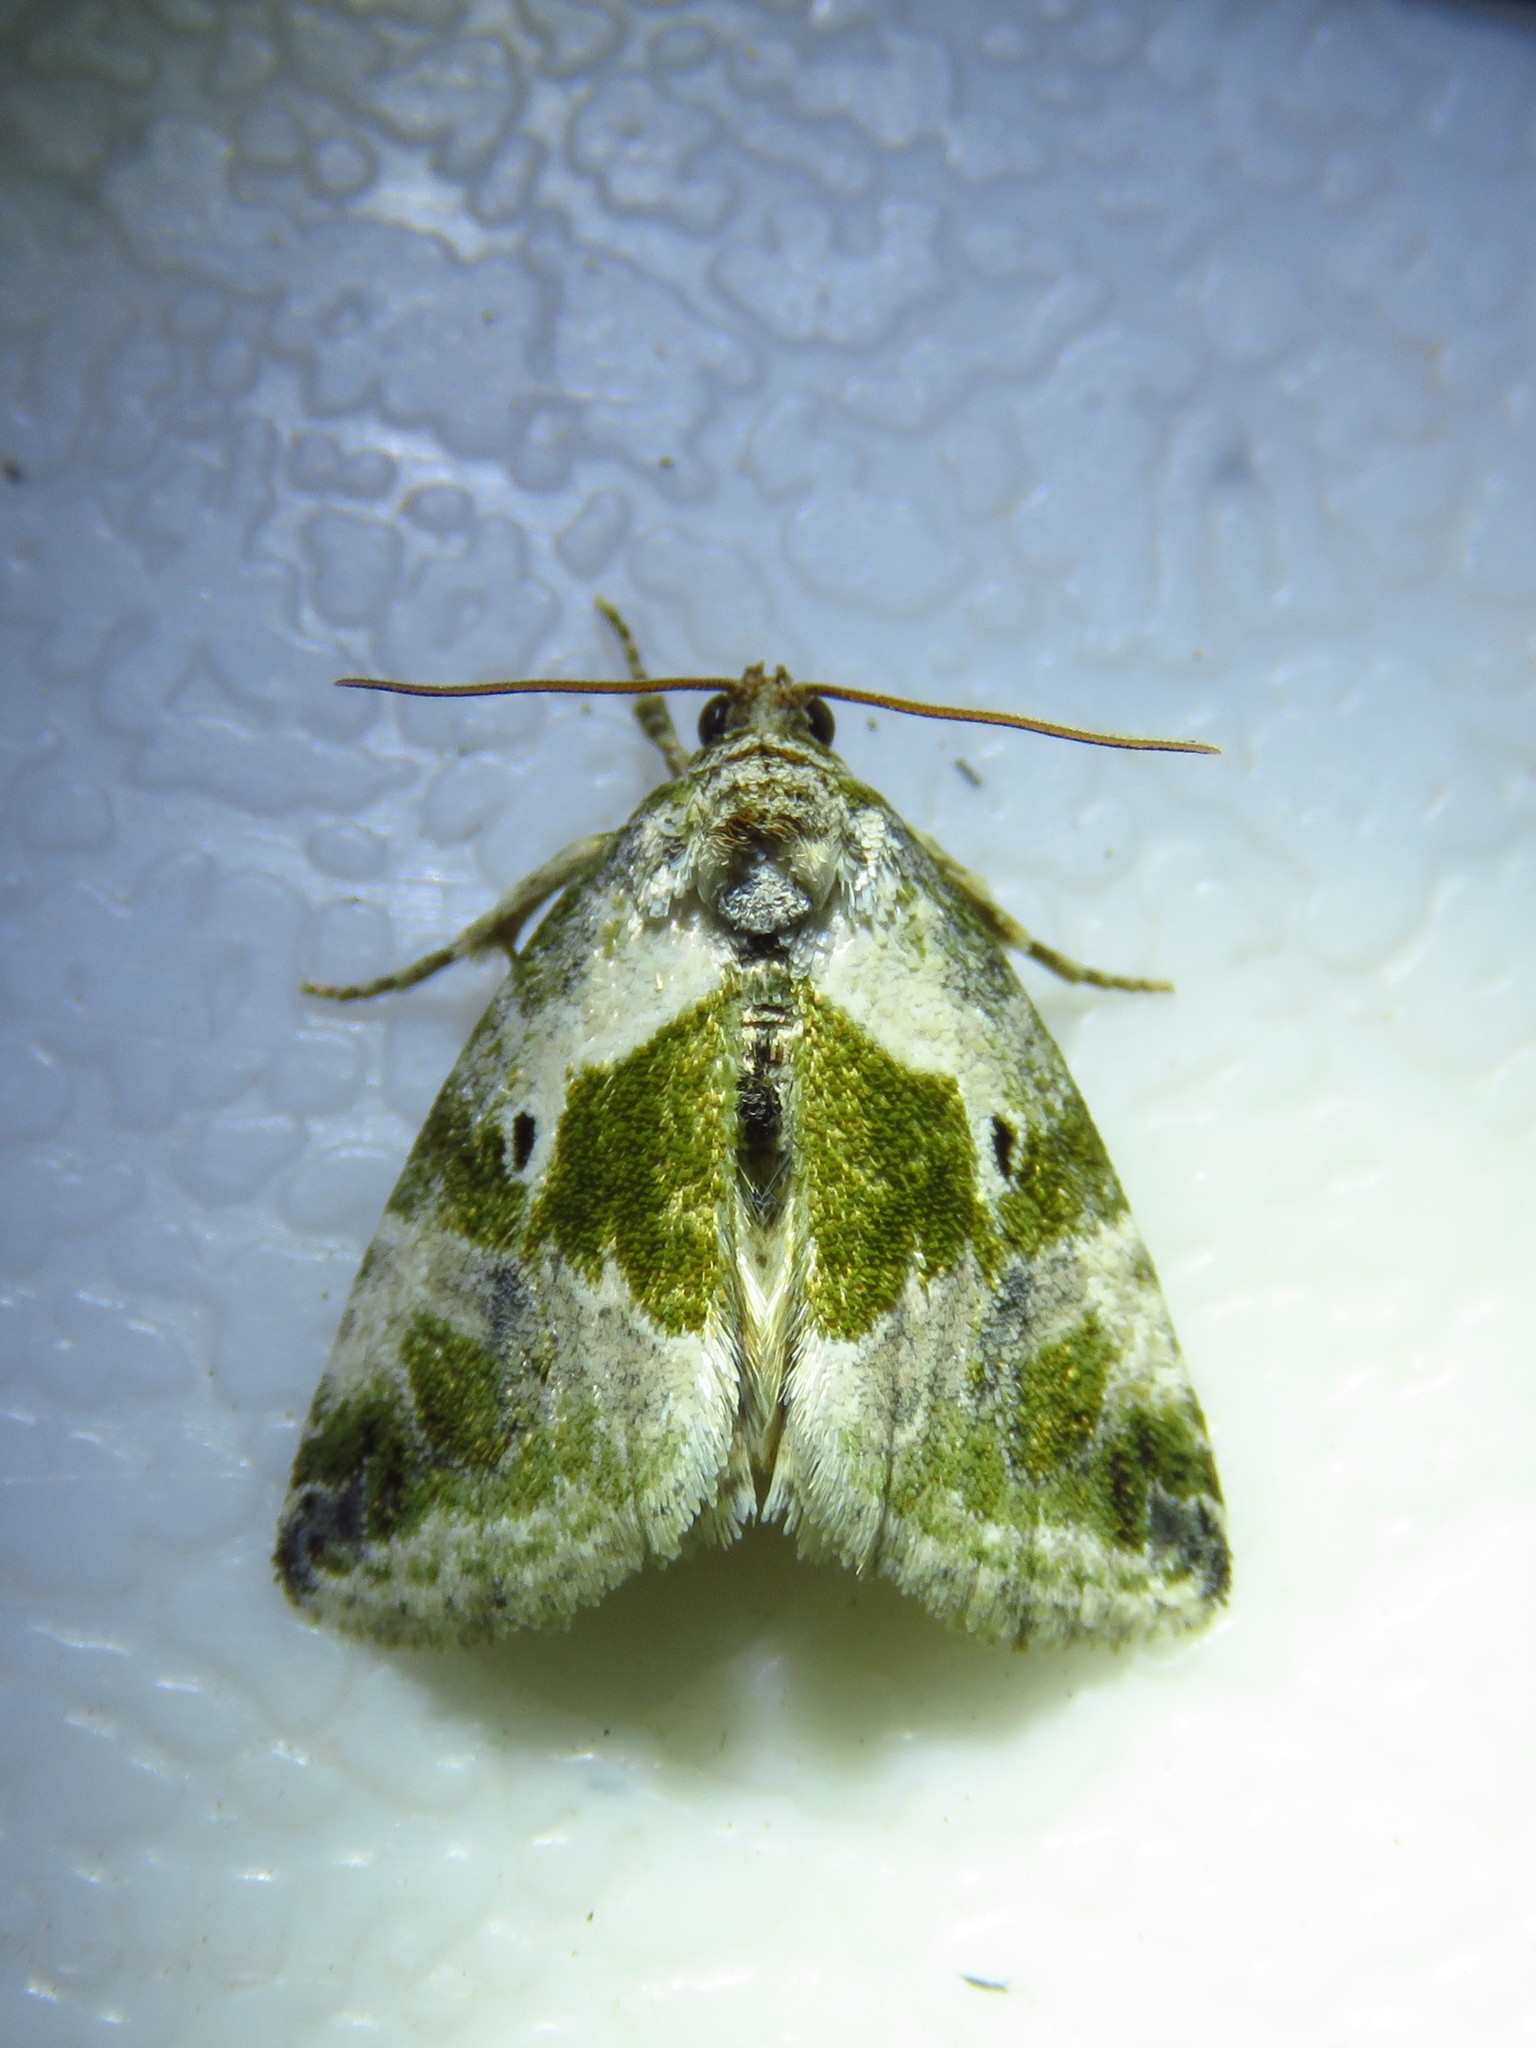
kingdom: Animalia
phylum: Arthropoda
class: Insecta
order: Lepidoptera
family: Noctuidae
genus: Maliattha
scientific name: Maliattha synochitis
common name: Black-dotted glyph
